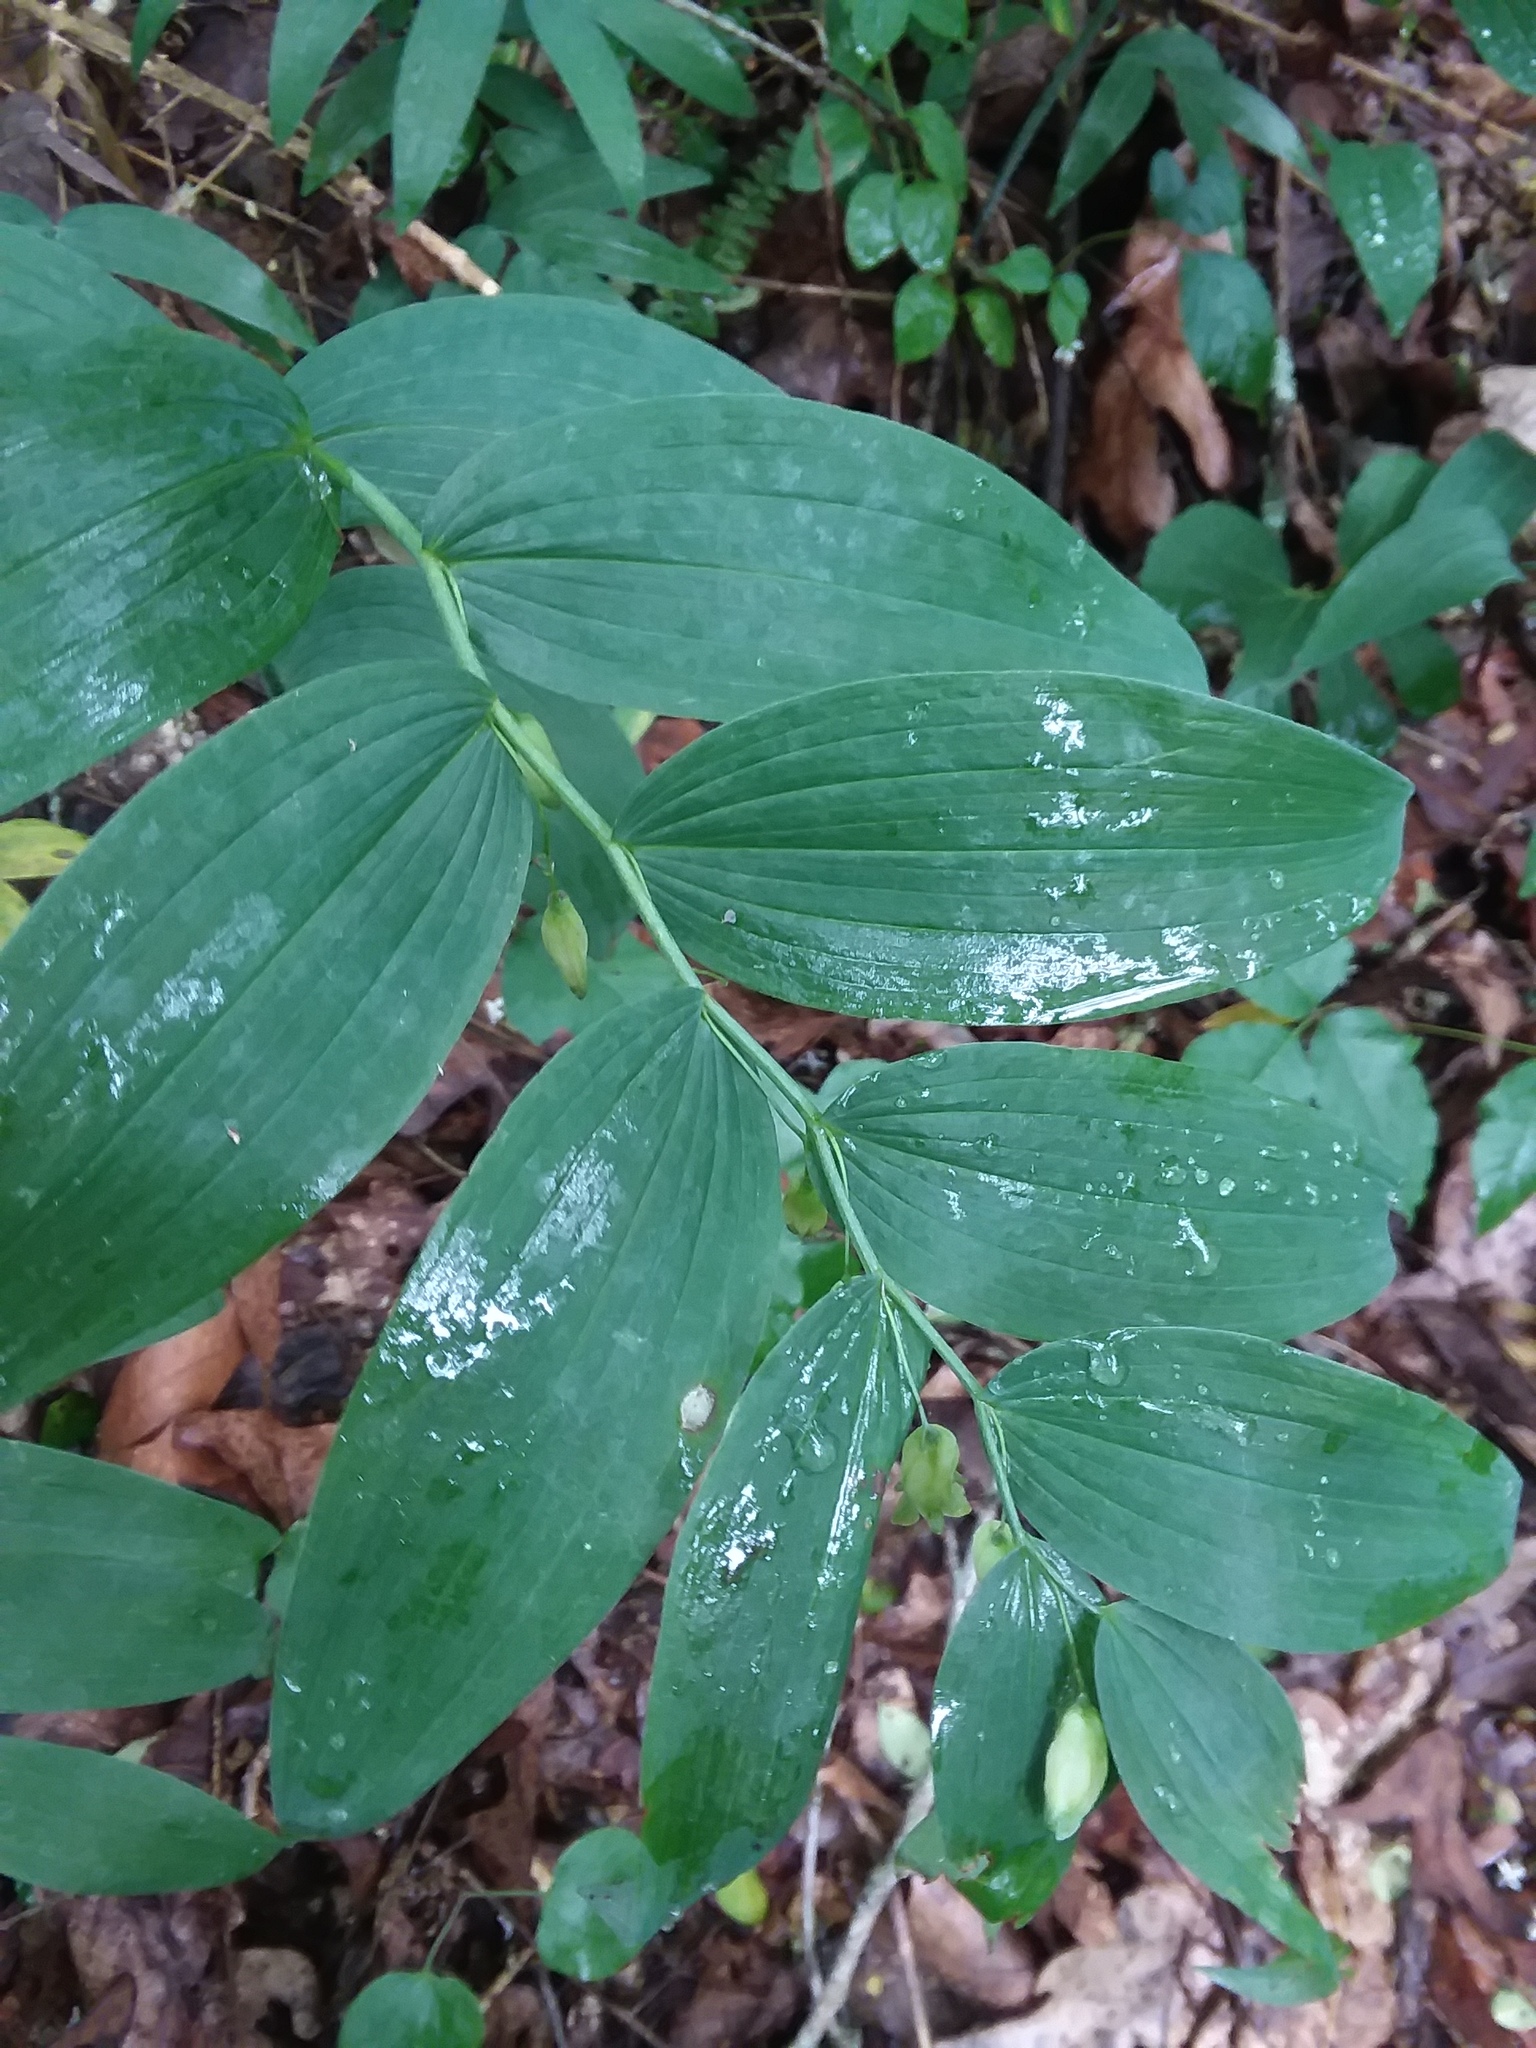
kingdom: Plantae
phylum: Tracheophyta
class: Liliopsida
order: Asparagales
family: Asparagaceae
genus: Polygonatum
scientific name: Polygonatum biflorum
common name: American solomon's-seal
